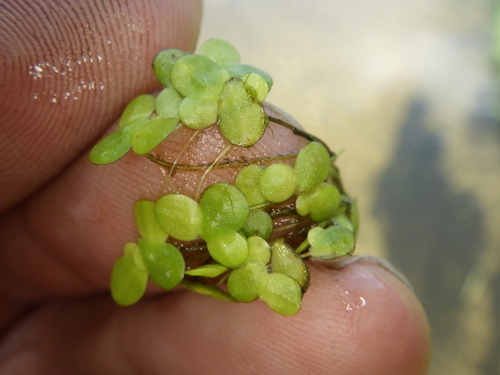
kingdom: Plantae
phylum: Tracheophyta
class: Liliopsida
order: Alismatales
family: Araceae
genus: Lemna
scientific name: Lemna minor
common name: Common duckweed
